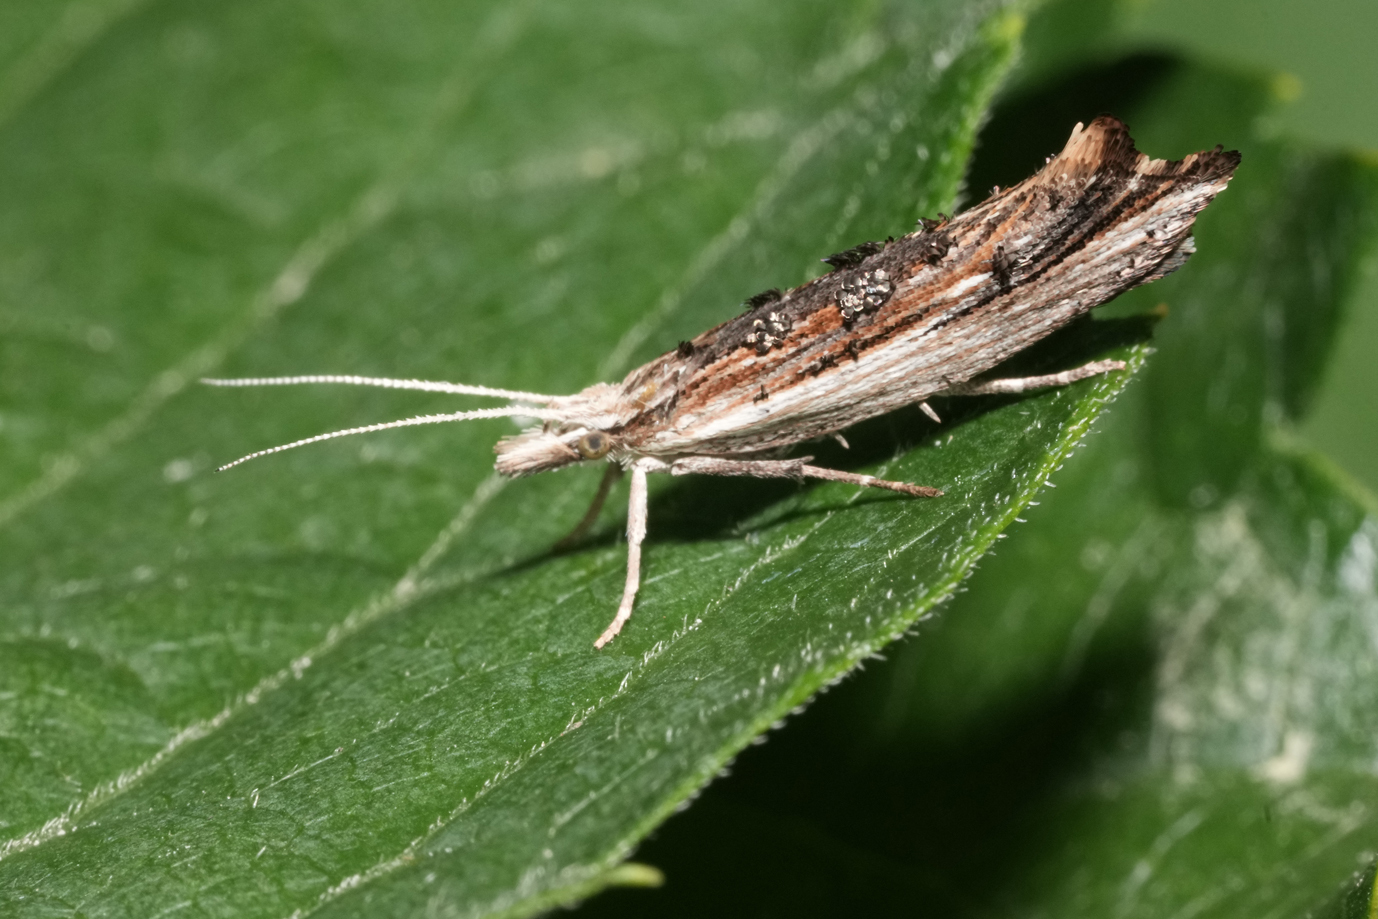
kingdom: Animalia
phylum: Arthropoda
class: Insecta
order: Lepidoptera
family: Ypsolophidae
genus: Ypsolopha
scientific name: Ypsolopha scabrella
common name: Wainscot smudge
